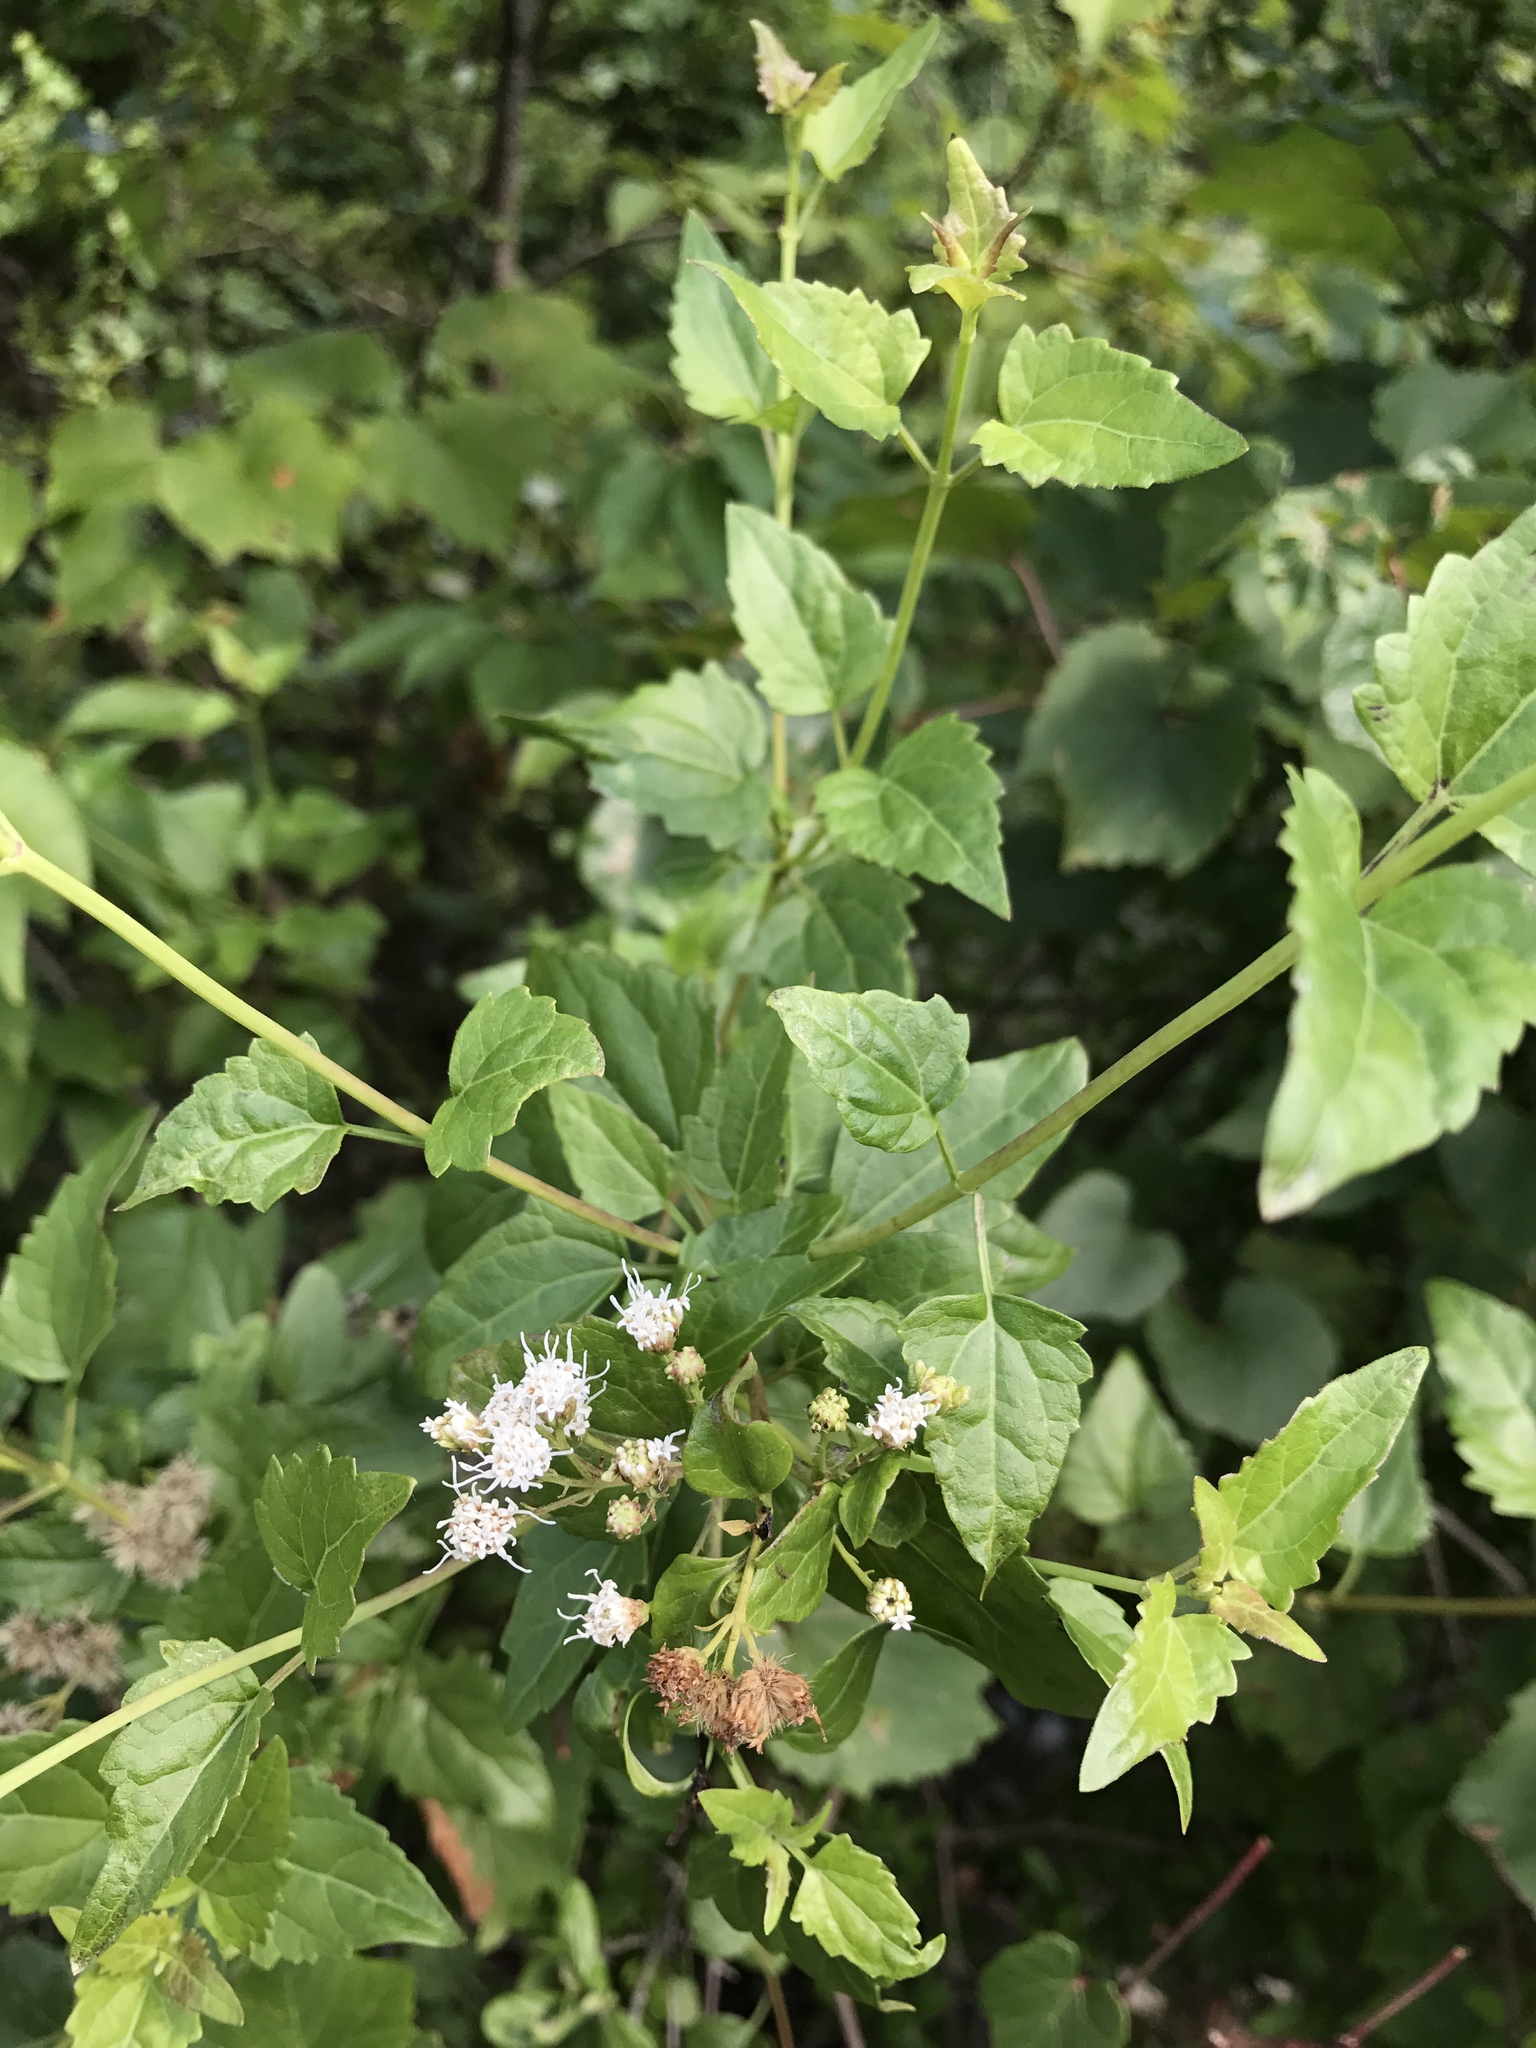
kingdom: Plantae
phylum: Tracheophyta
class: Magnoliopsida
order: Asterales
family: Asteraceae
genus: Ageratina
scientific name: Ageratina havanensis
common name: Havana snakeroot
